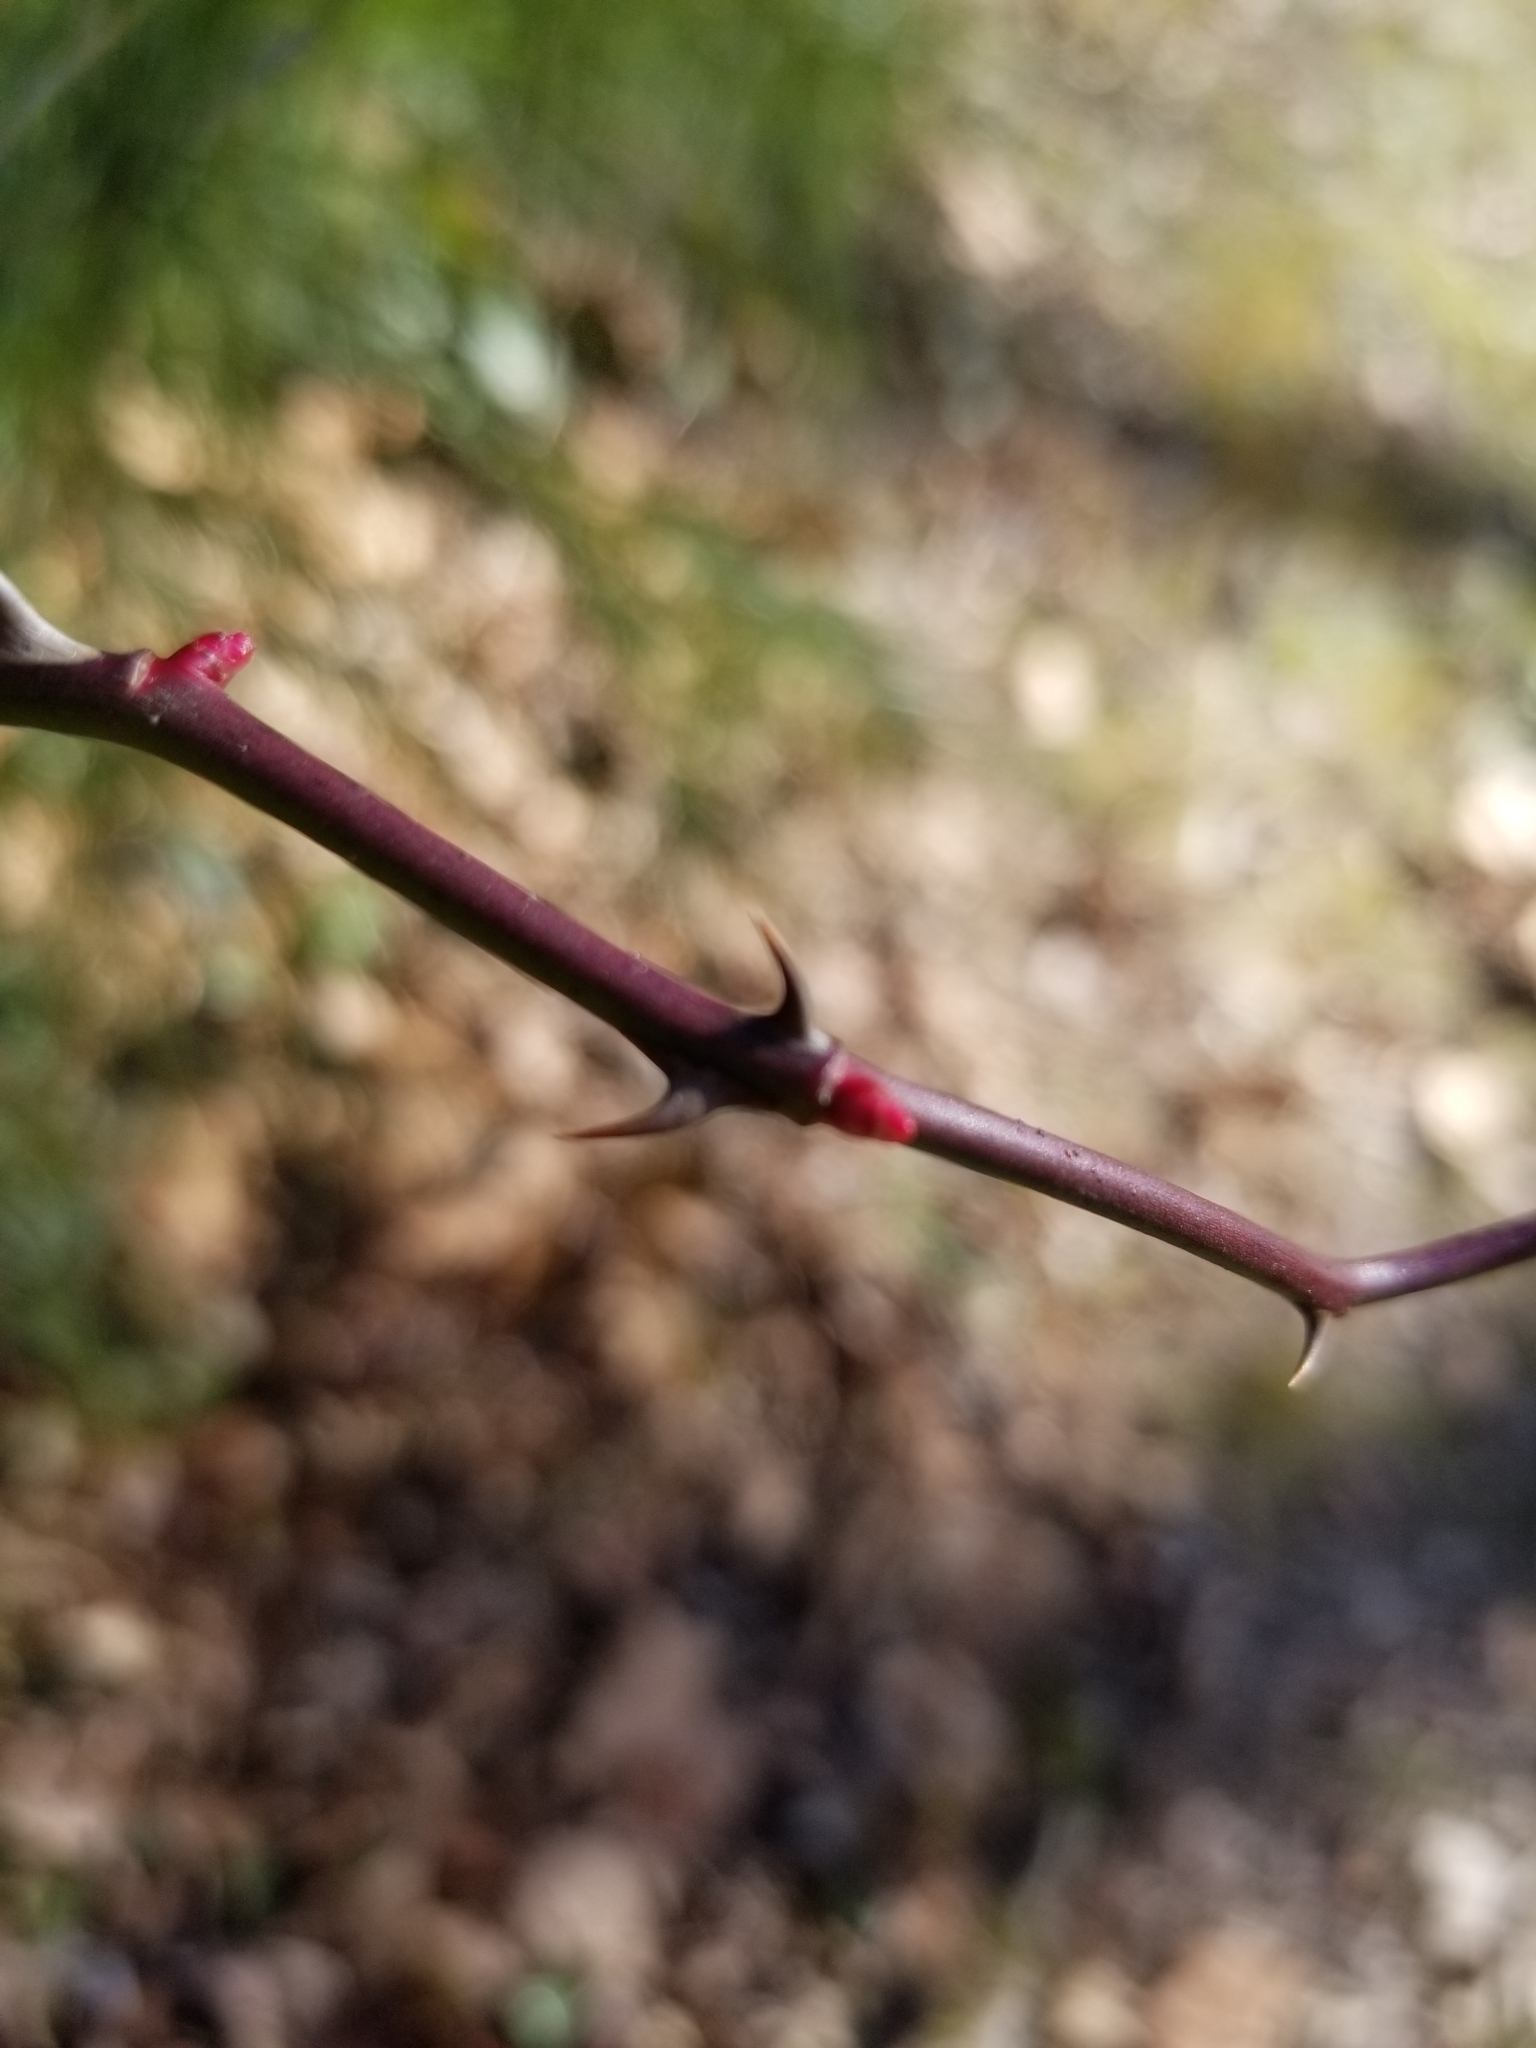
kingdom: Plantae
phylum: Tracheophyta
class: Magnoliopsida
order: Rosales
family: Rosaceae
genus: Rosa
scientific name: Rosa multiflora
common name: Multiflora rose
